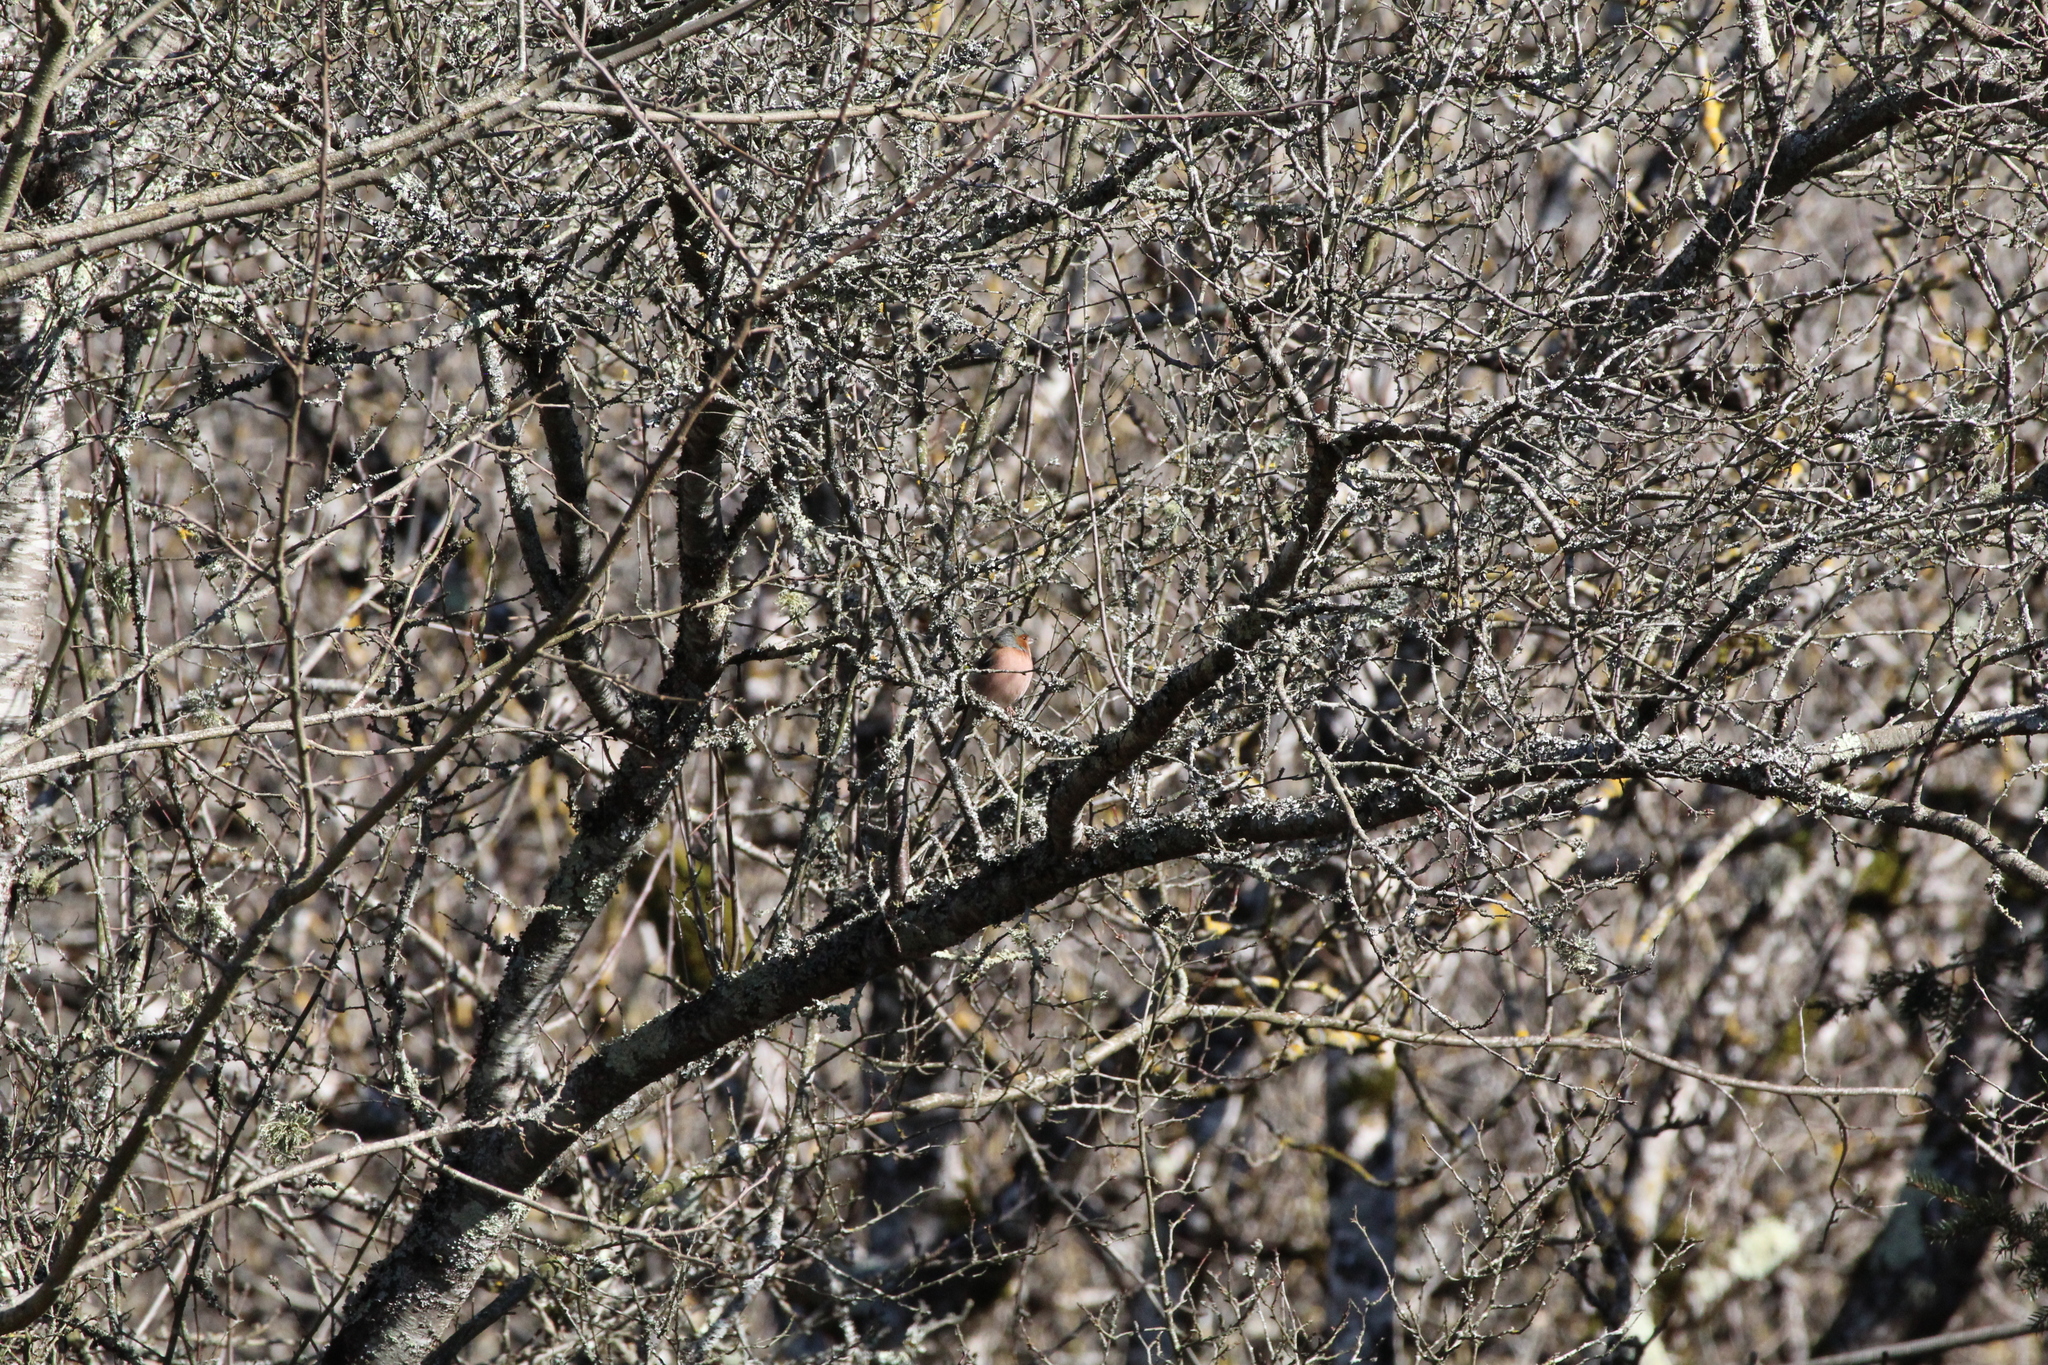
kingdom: Animalia
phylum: Chordata
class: Aves
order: Passeriformes
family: Fringillidae
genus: Fringilla
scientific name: Fringilla coelebs
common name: Common chaffinch
